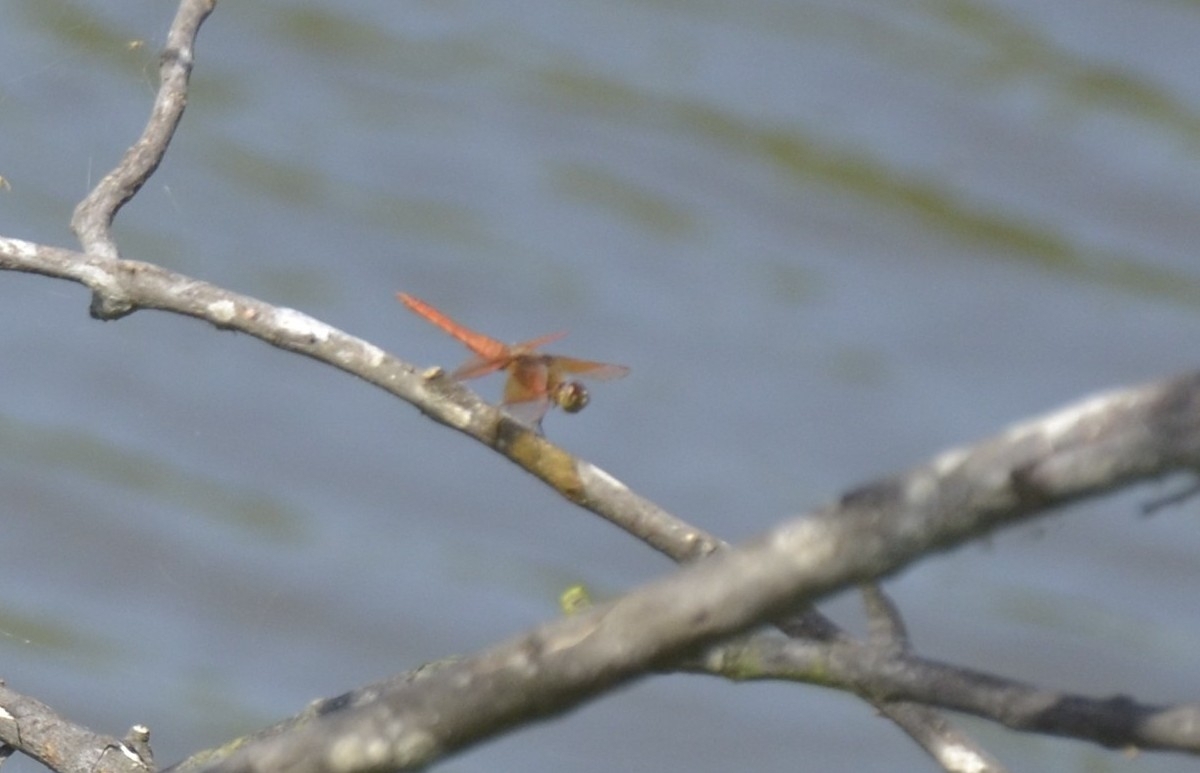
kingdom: Animalia
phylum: Arthropoda
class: Insecta
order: Odonata
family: Libellulidae
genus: Brachythemis
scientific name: Brachythemis contaminata
